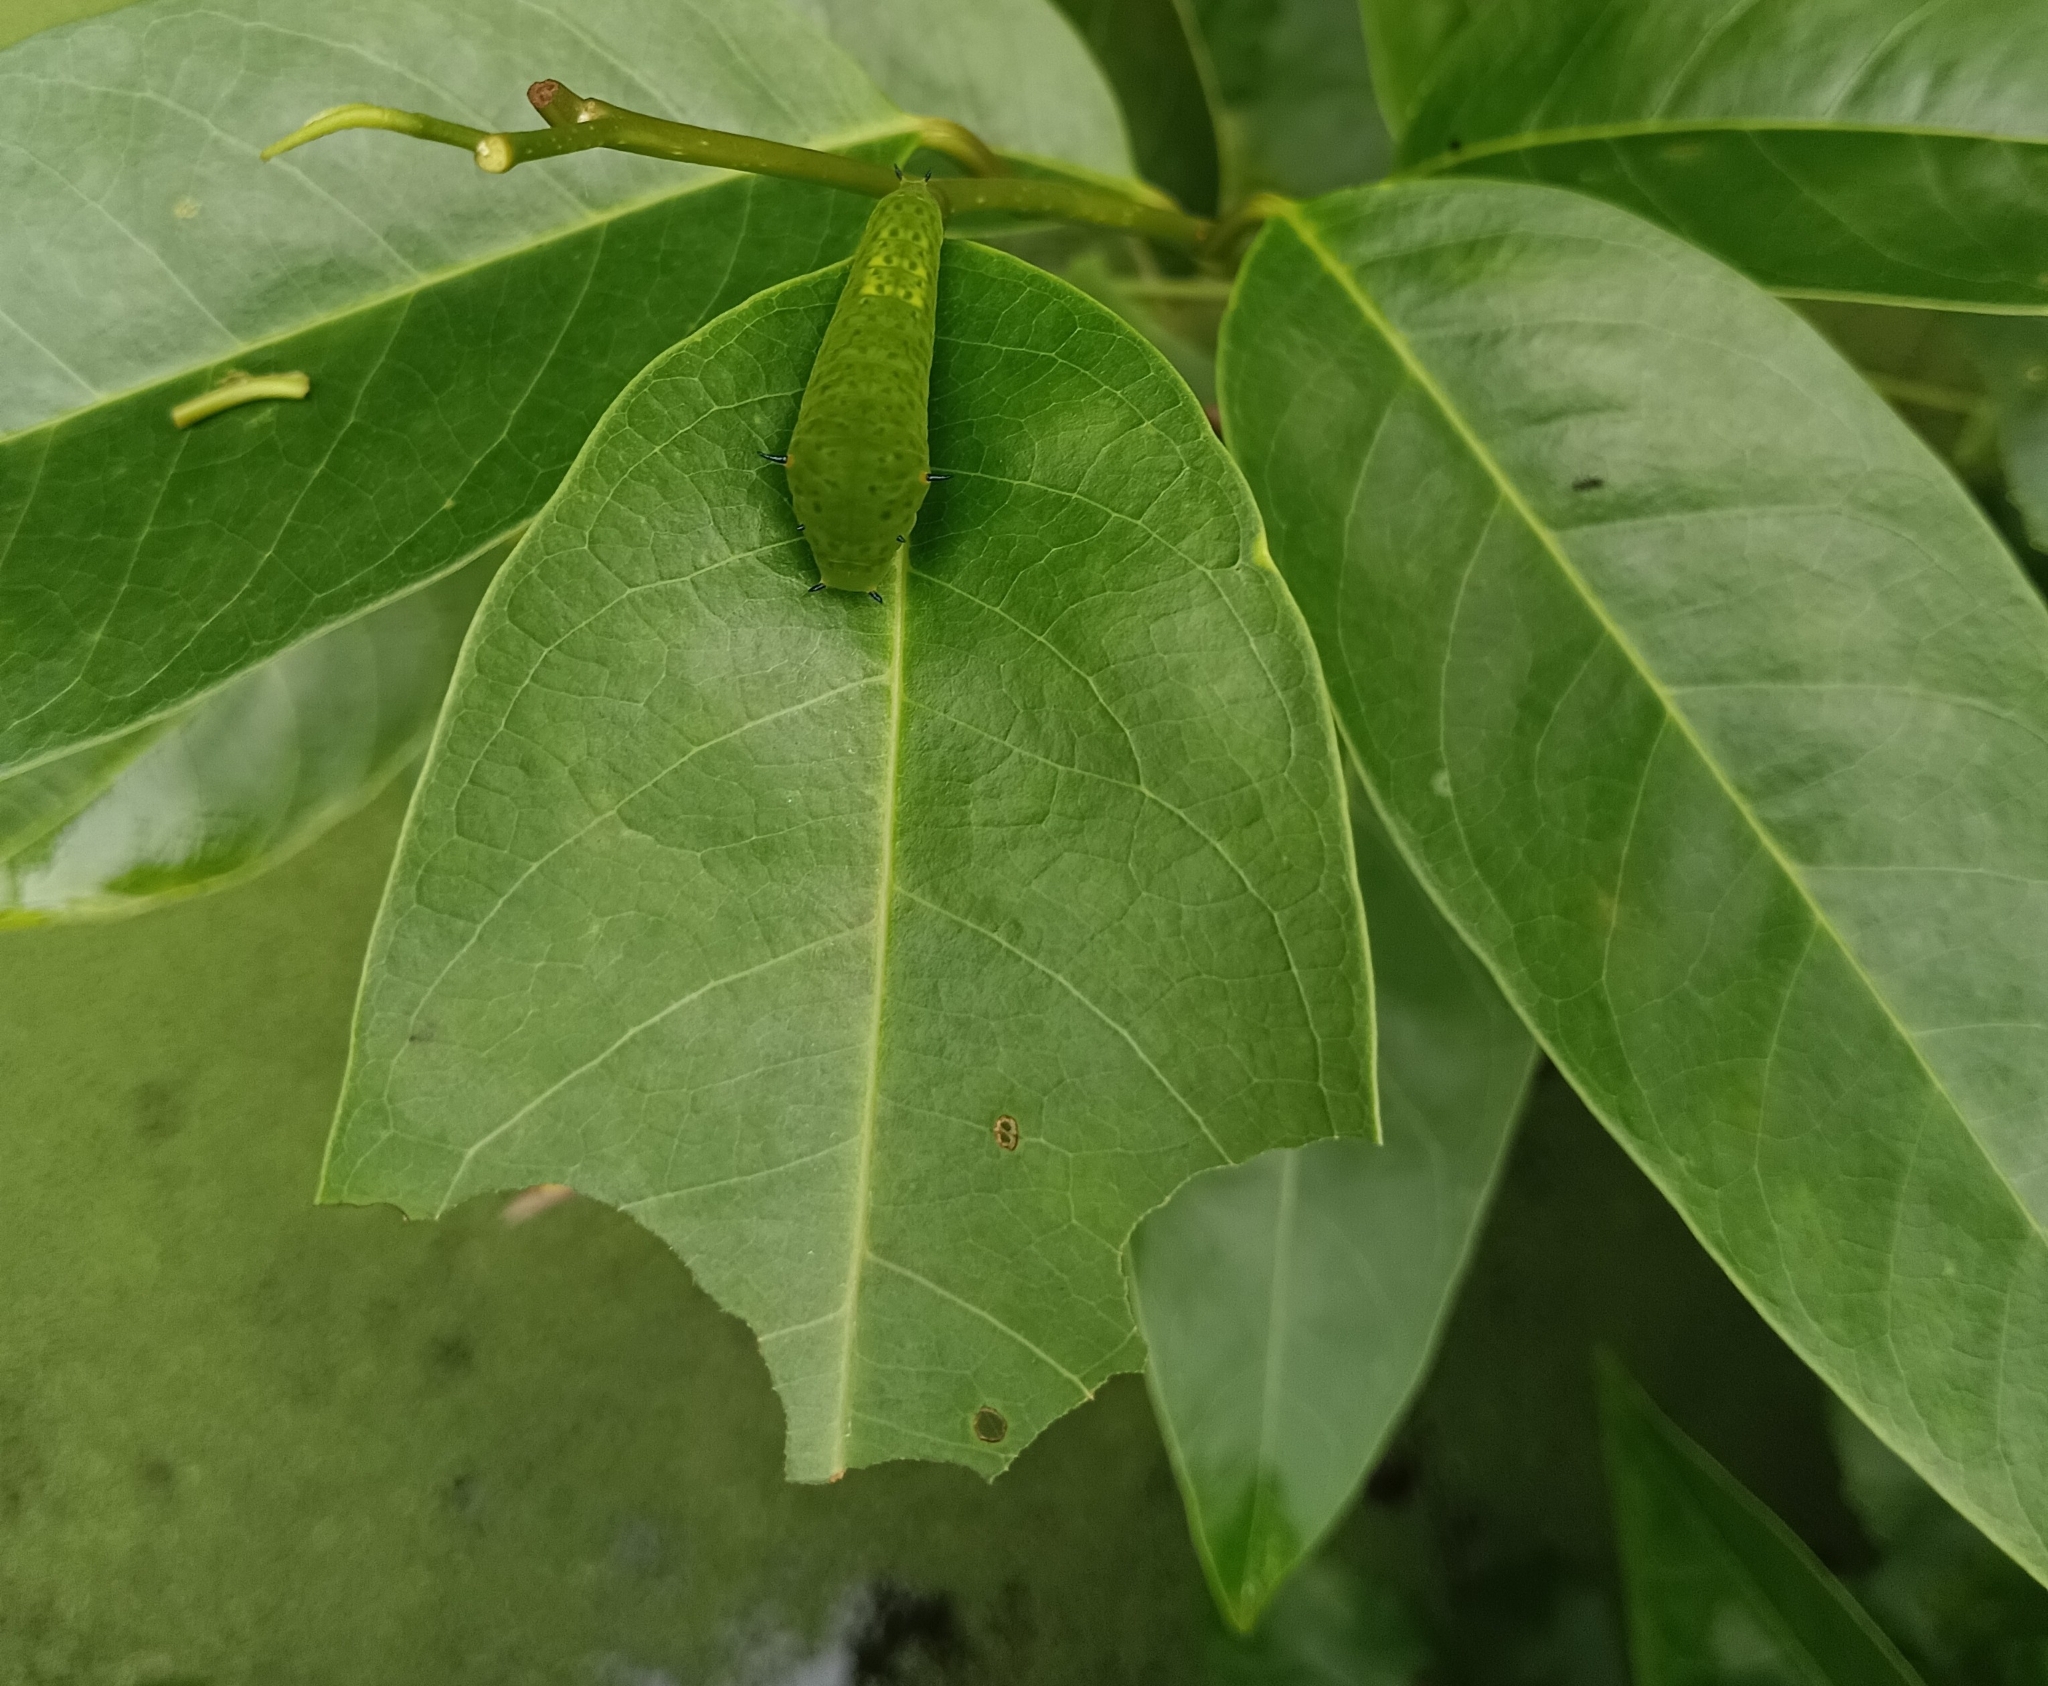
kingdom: Animalia
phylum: Arthropoda
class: Insecta
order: Lepidoptera
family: Papilionidae
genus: Graphium
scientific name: Graphium agamemnon
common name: Tailed jay
